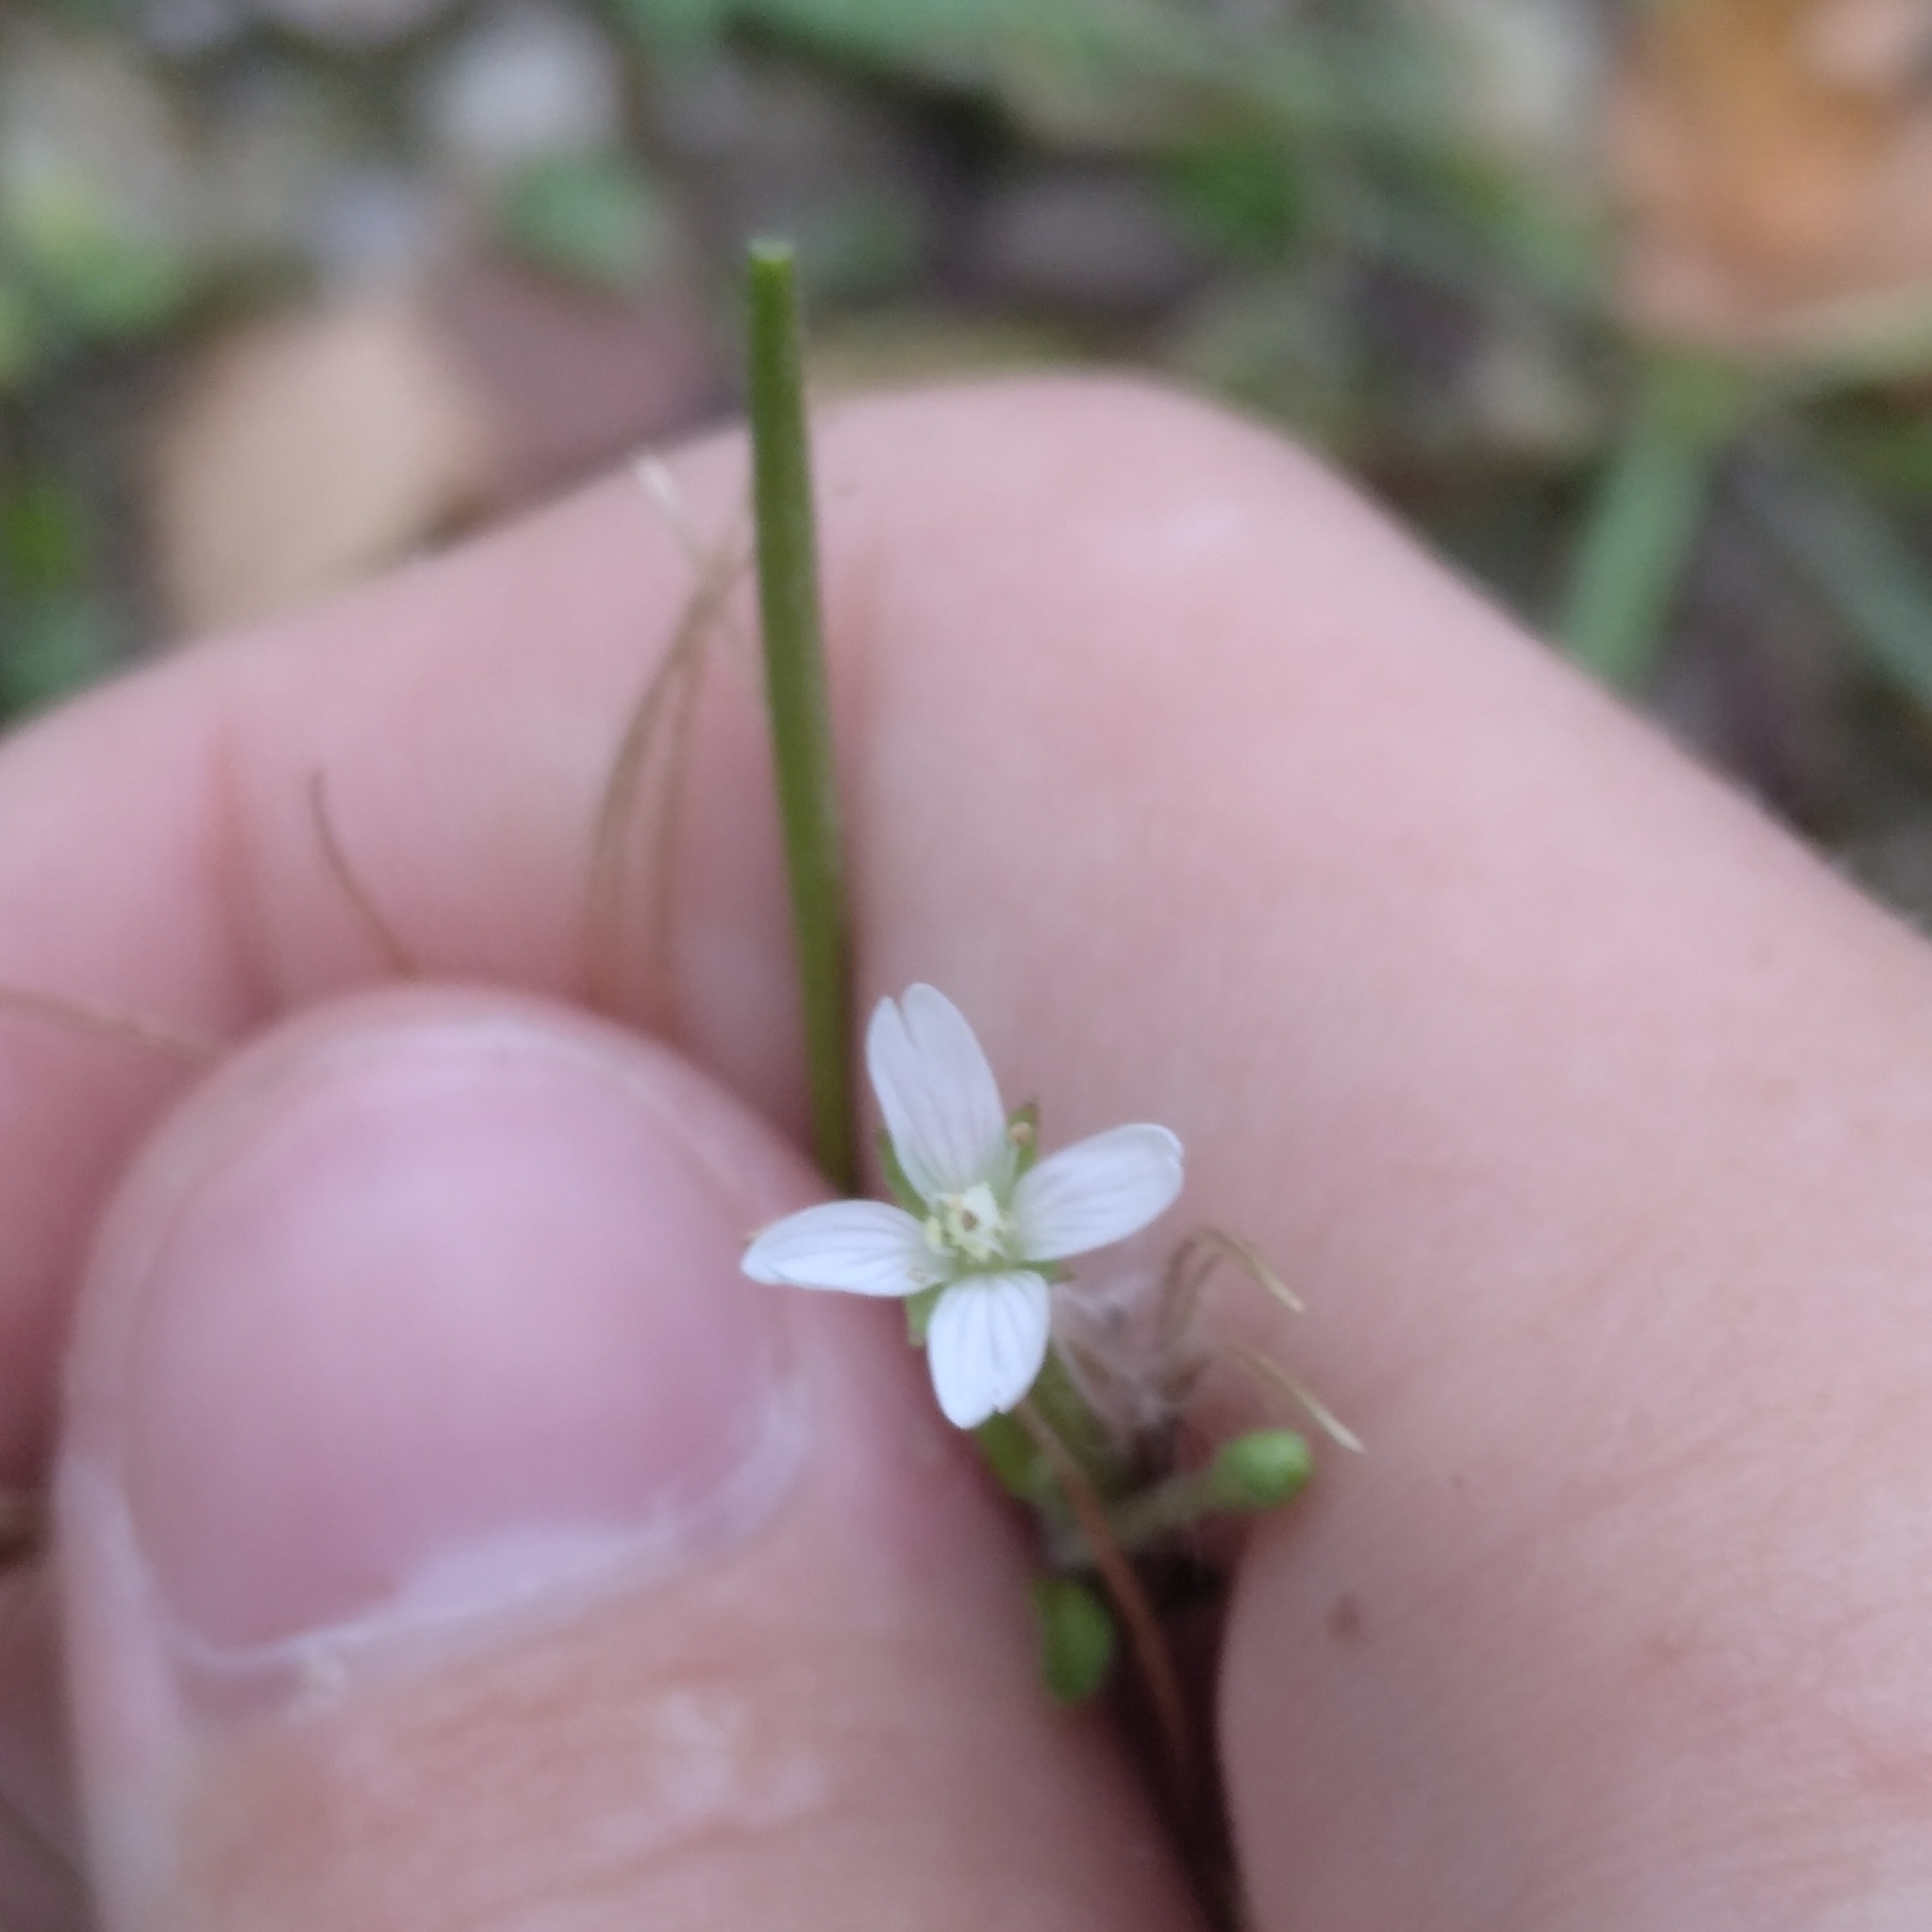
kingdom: Plantae
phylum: Tracheophyta
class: Magnoliopsida
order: Myrtales
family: Onagraceae
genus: Epilobium
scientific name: Epilobium pseudorubescens
